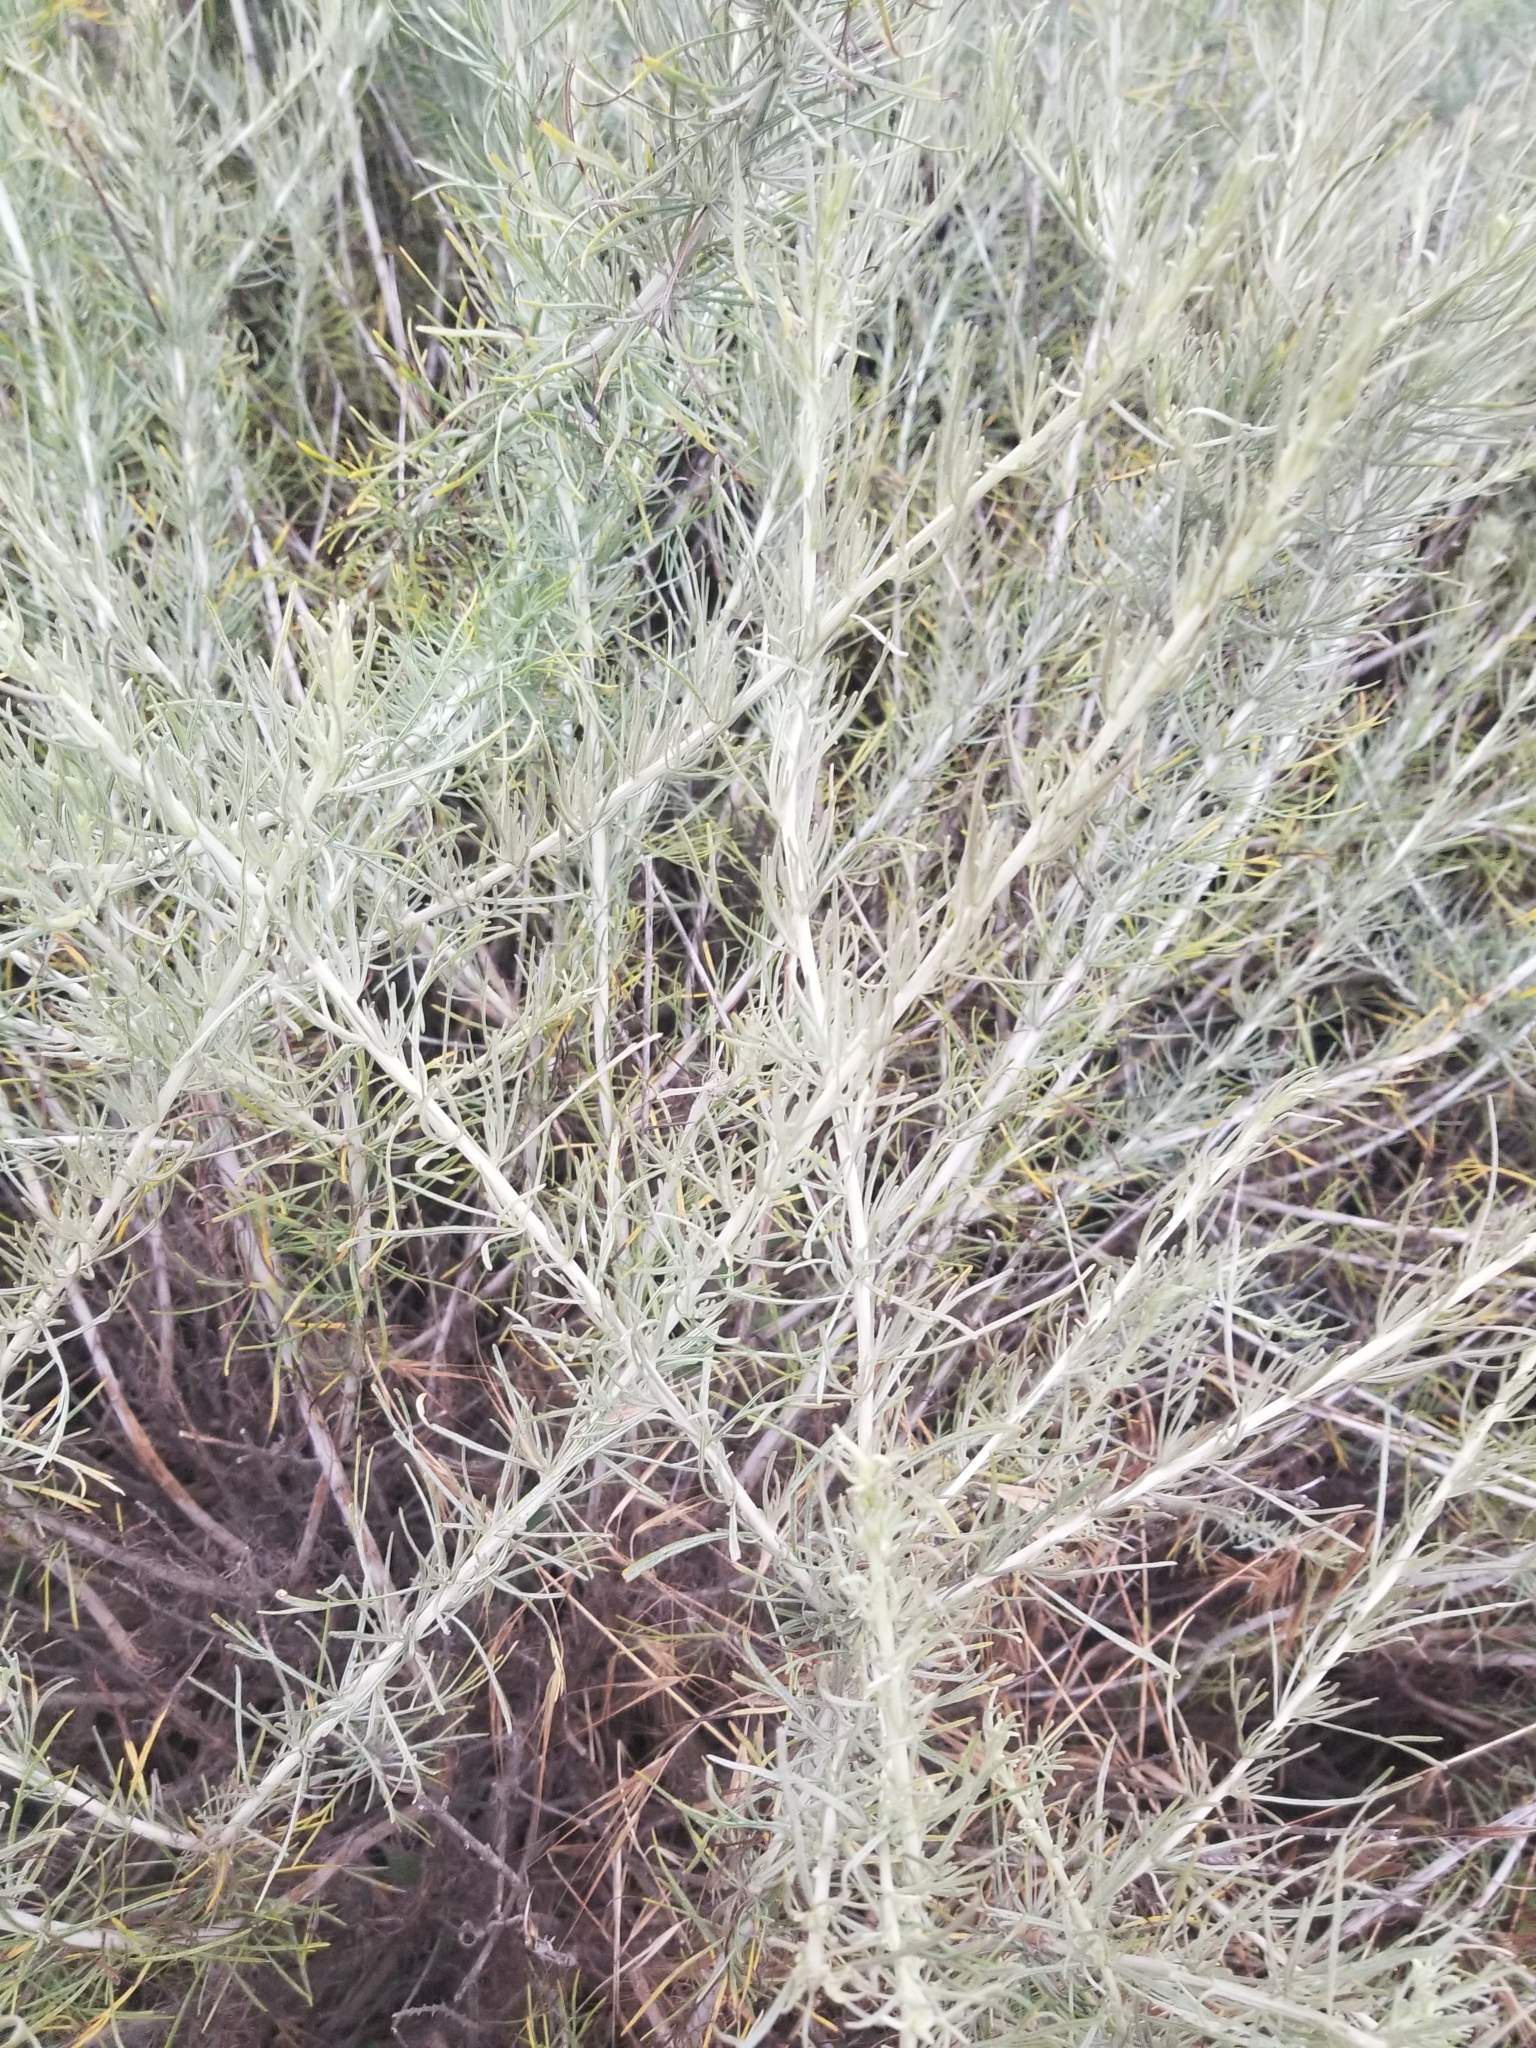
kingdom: Plantae
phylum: Tracheophyta
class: Magnoliopsida
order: Asterales
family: Asteraceae
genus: Artemisia
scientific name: Artemisia californica
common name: California sagebrush
